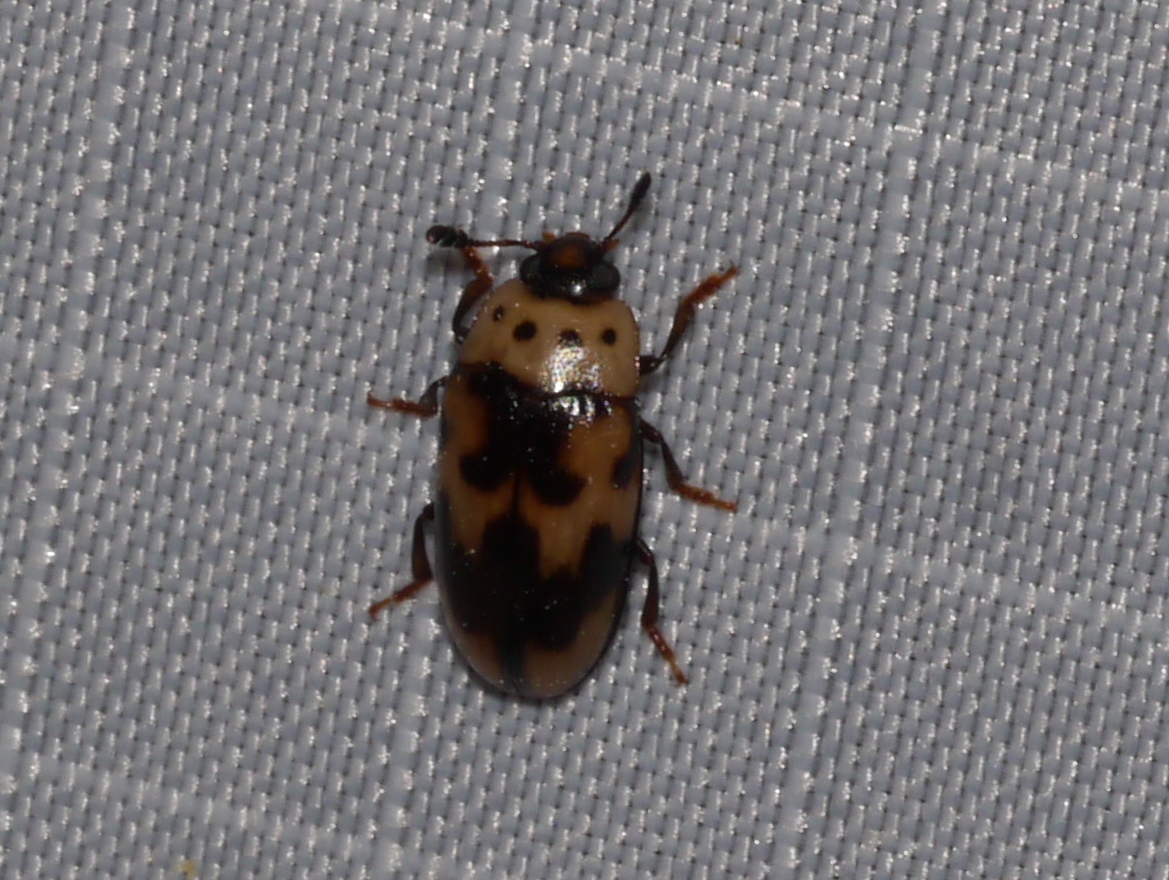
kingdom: Animalia
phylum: Arthropoda
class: Insecta
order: Coleoptera
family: Erotylidae
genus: Ischyrus
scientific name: Ischyrus quadripunctatus
